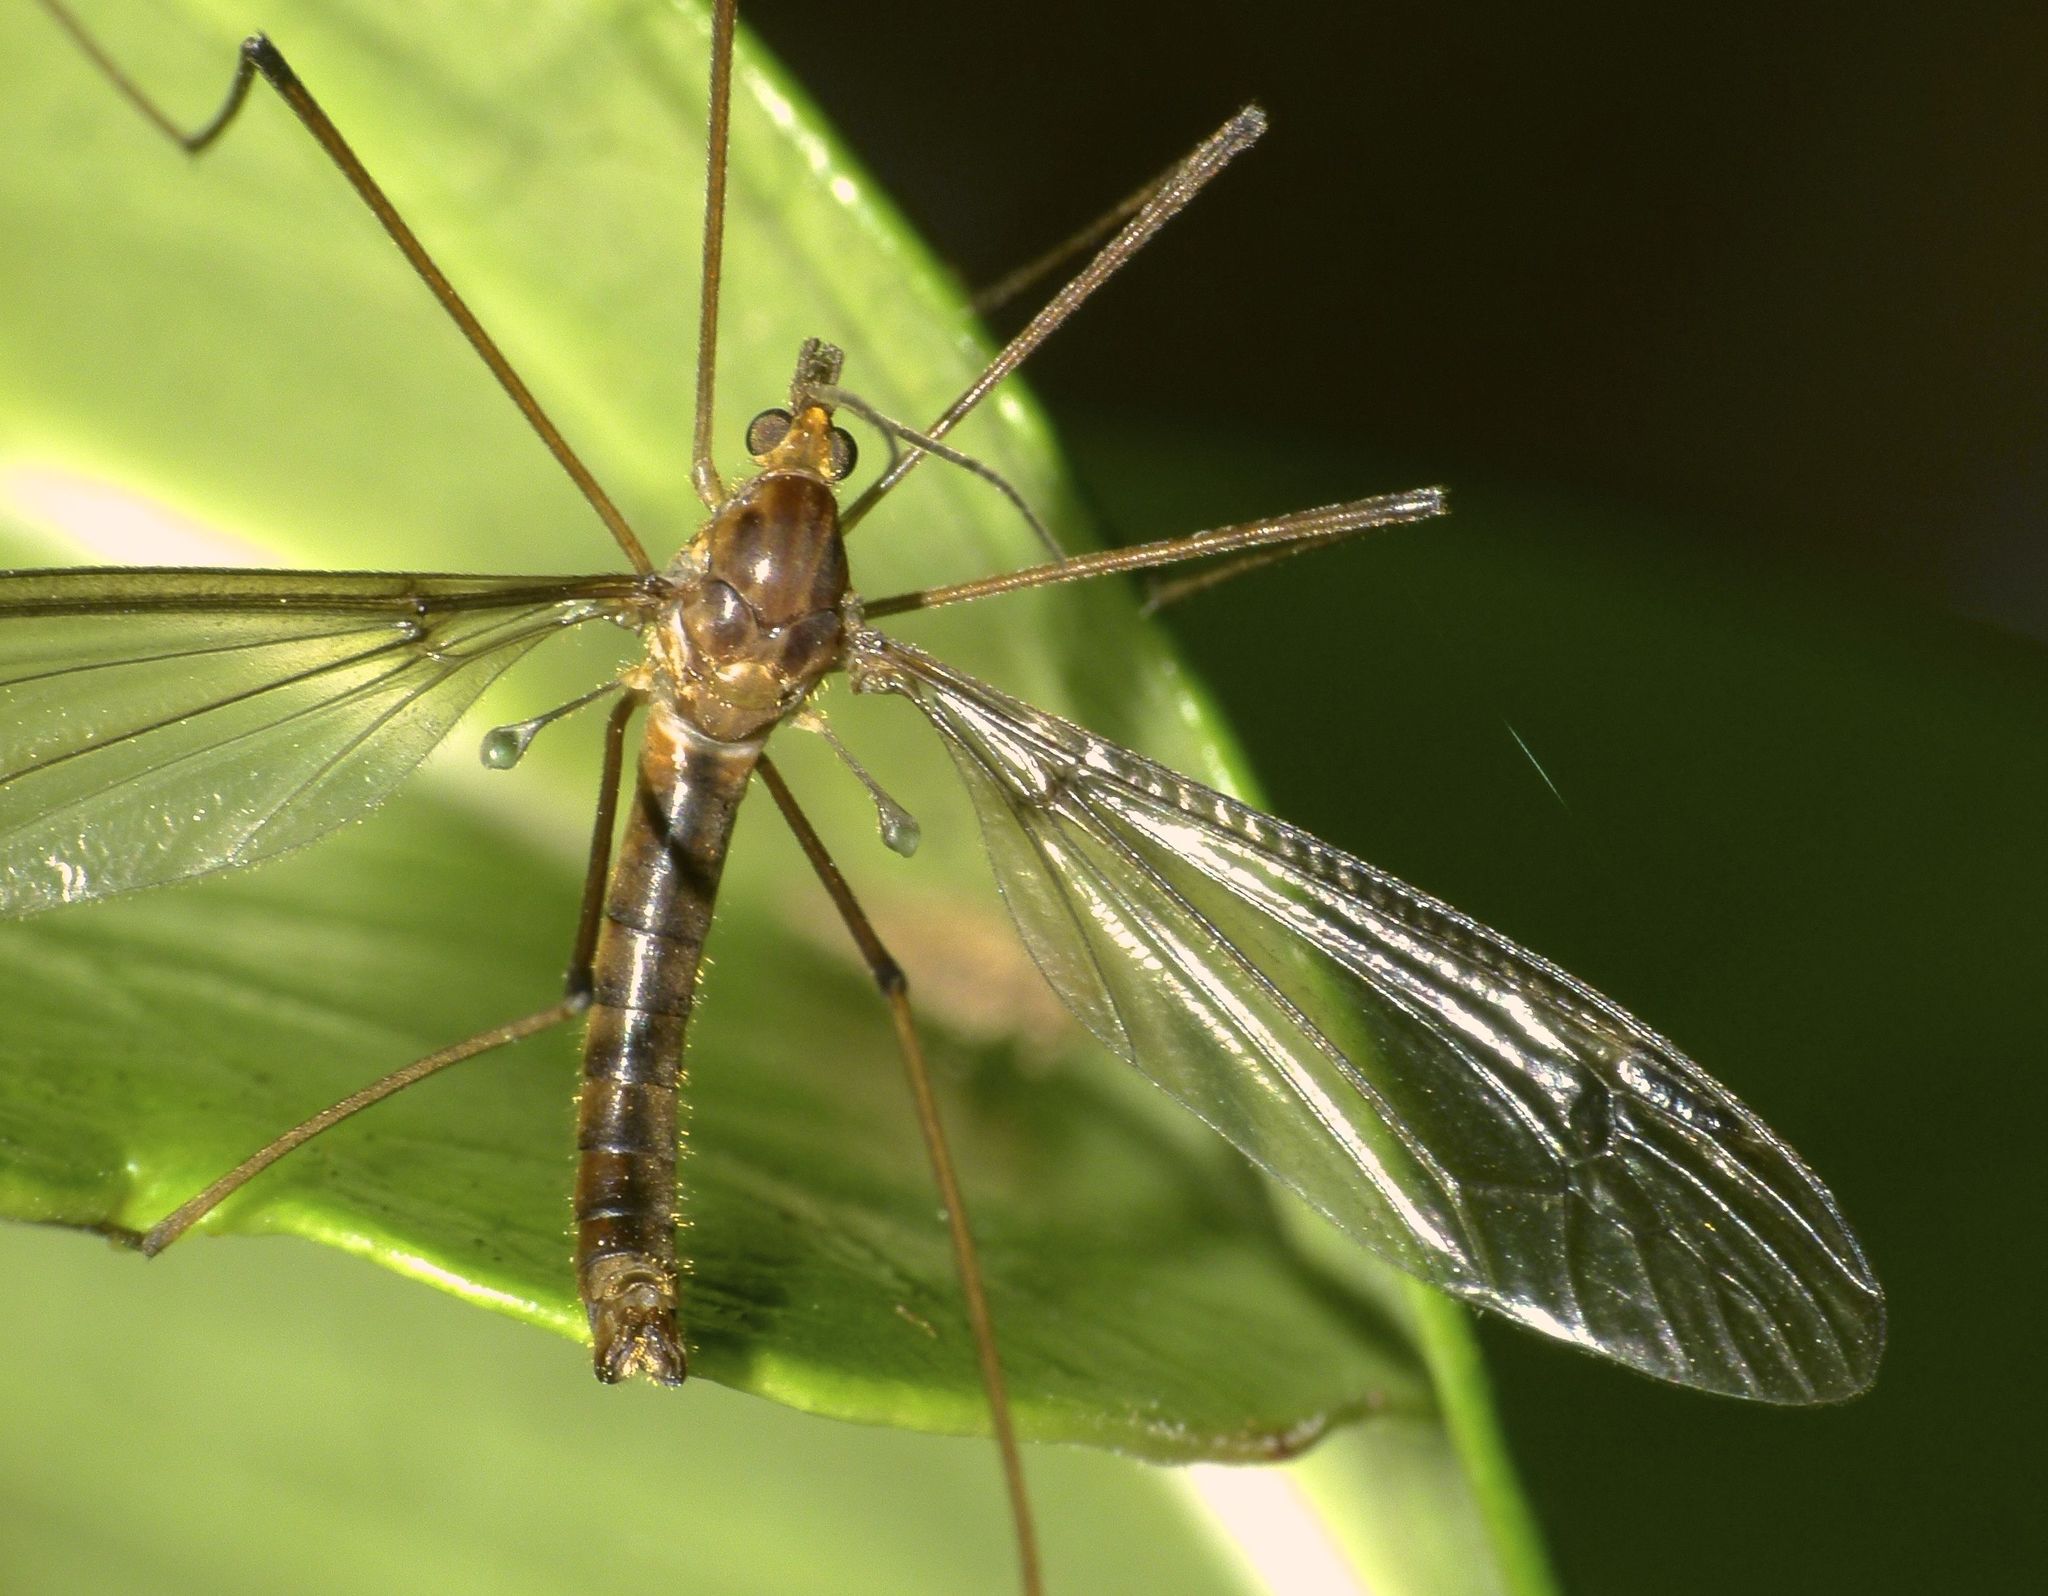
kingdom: Animalia
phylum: Arthropoda
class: Insecta
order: Diptera
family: Tipulidae
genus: Leptotarsus
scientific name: Leptotarsus mesocerus
